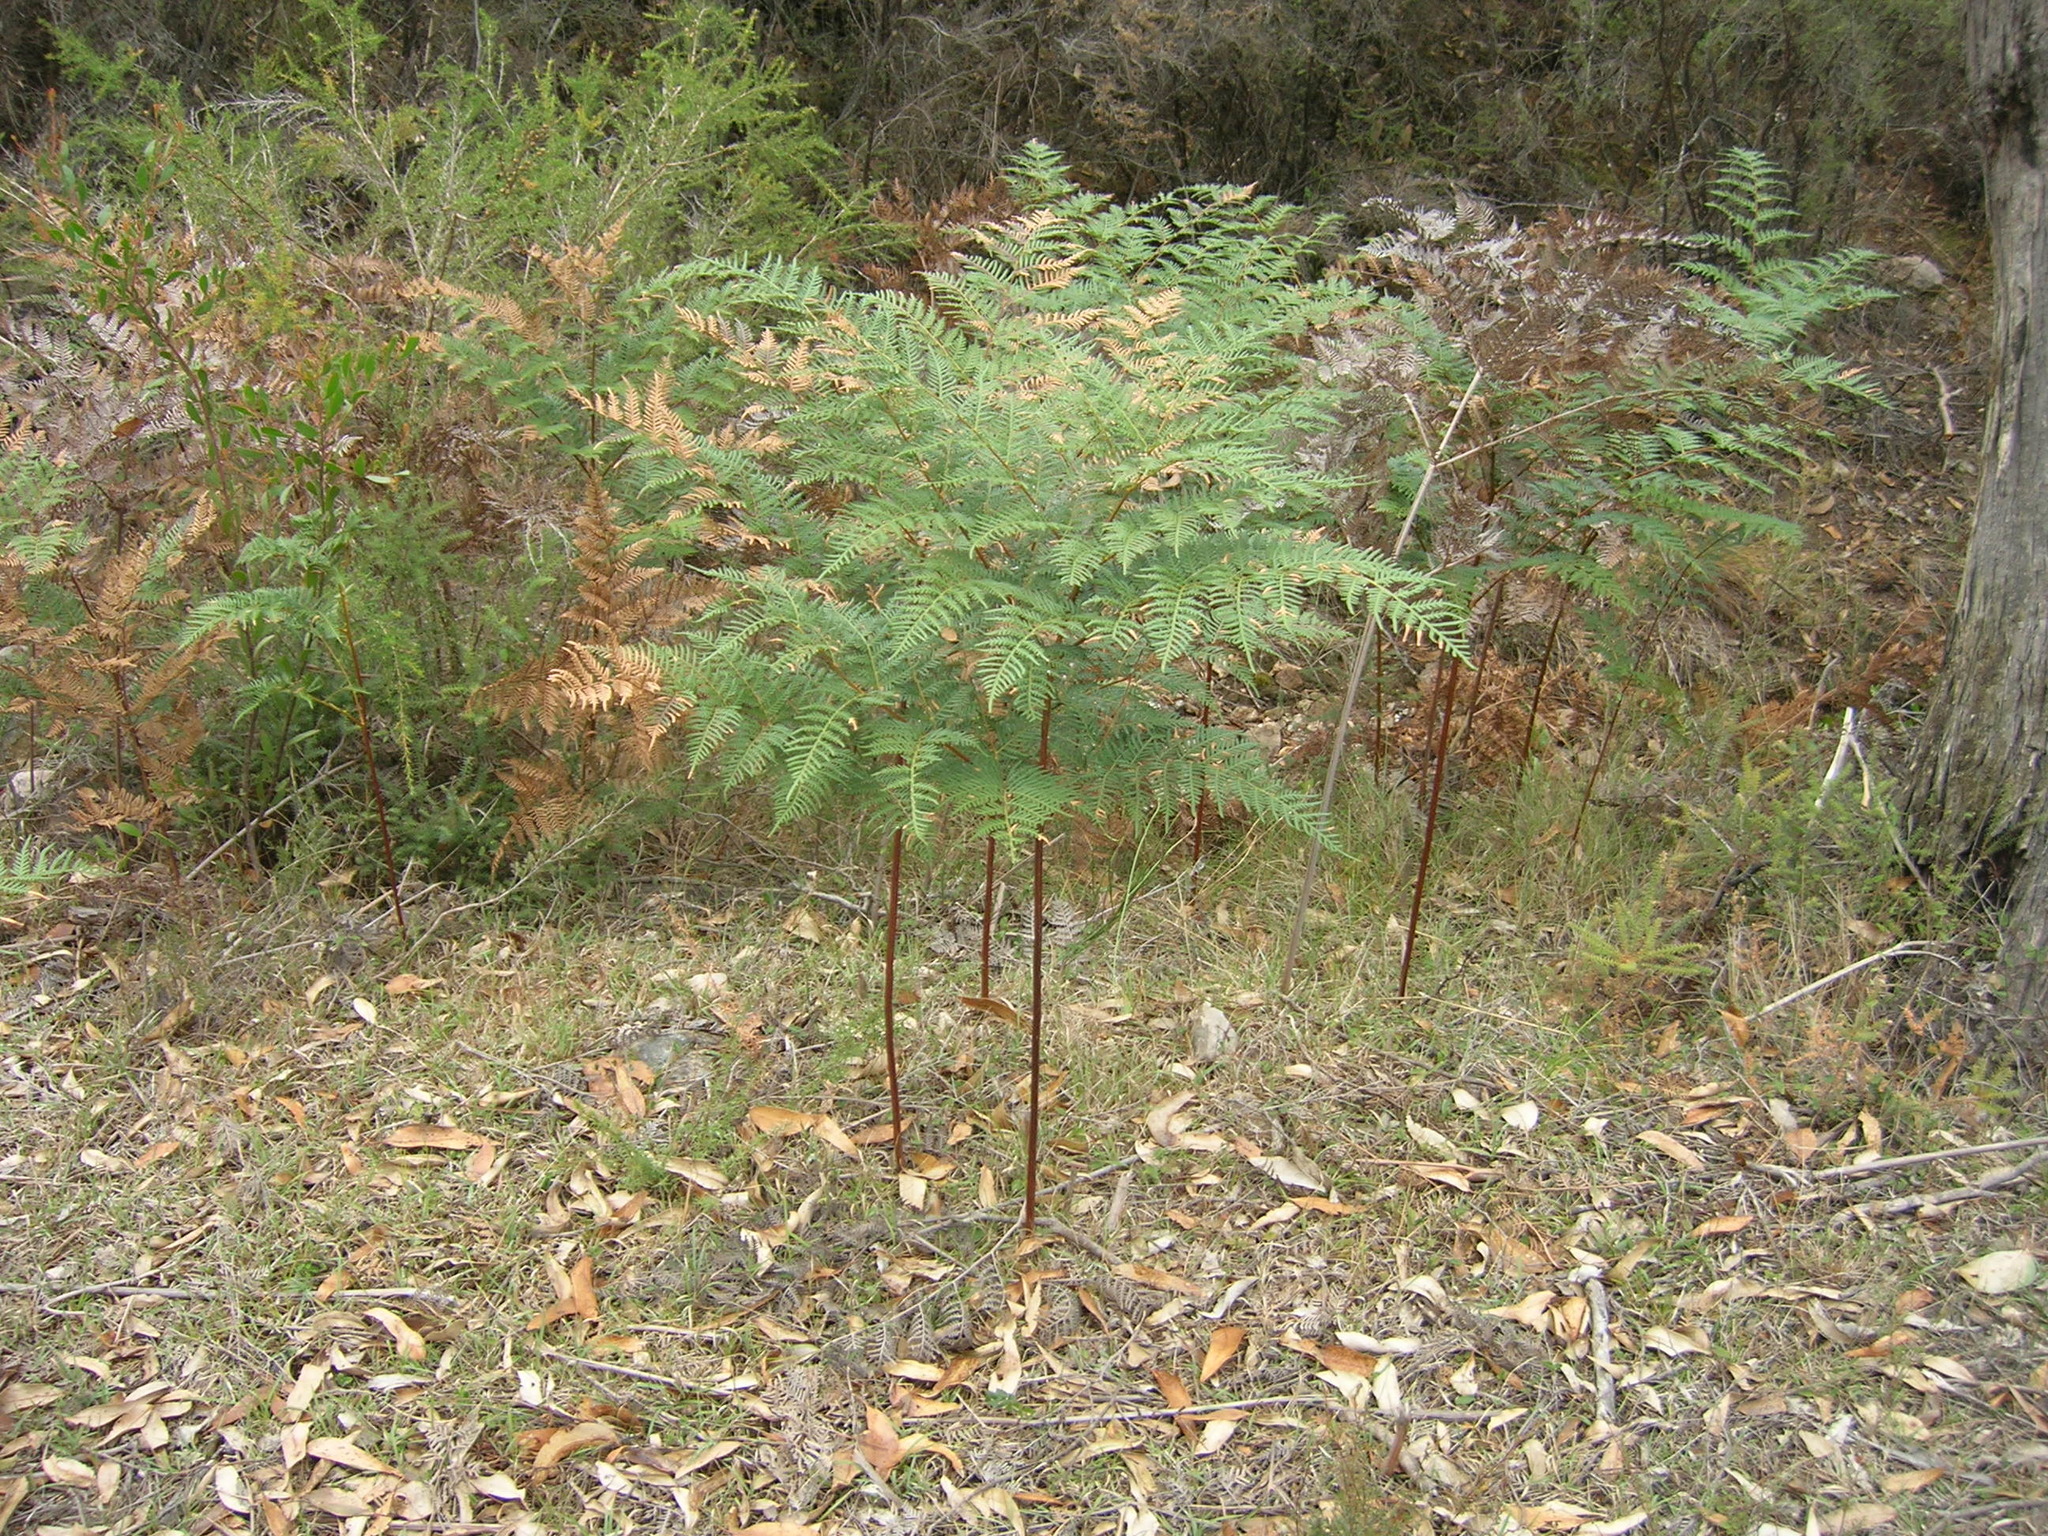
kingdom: Plantae
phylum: Tracheophyta
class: Polypodiopsida
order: Polypodiales
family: Dennstaedtiaceae
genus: Pteridium
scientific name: Pteridium esculentum
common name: Bracken fern
